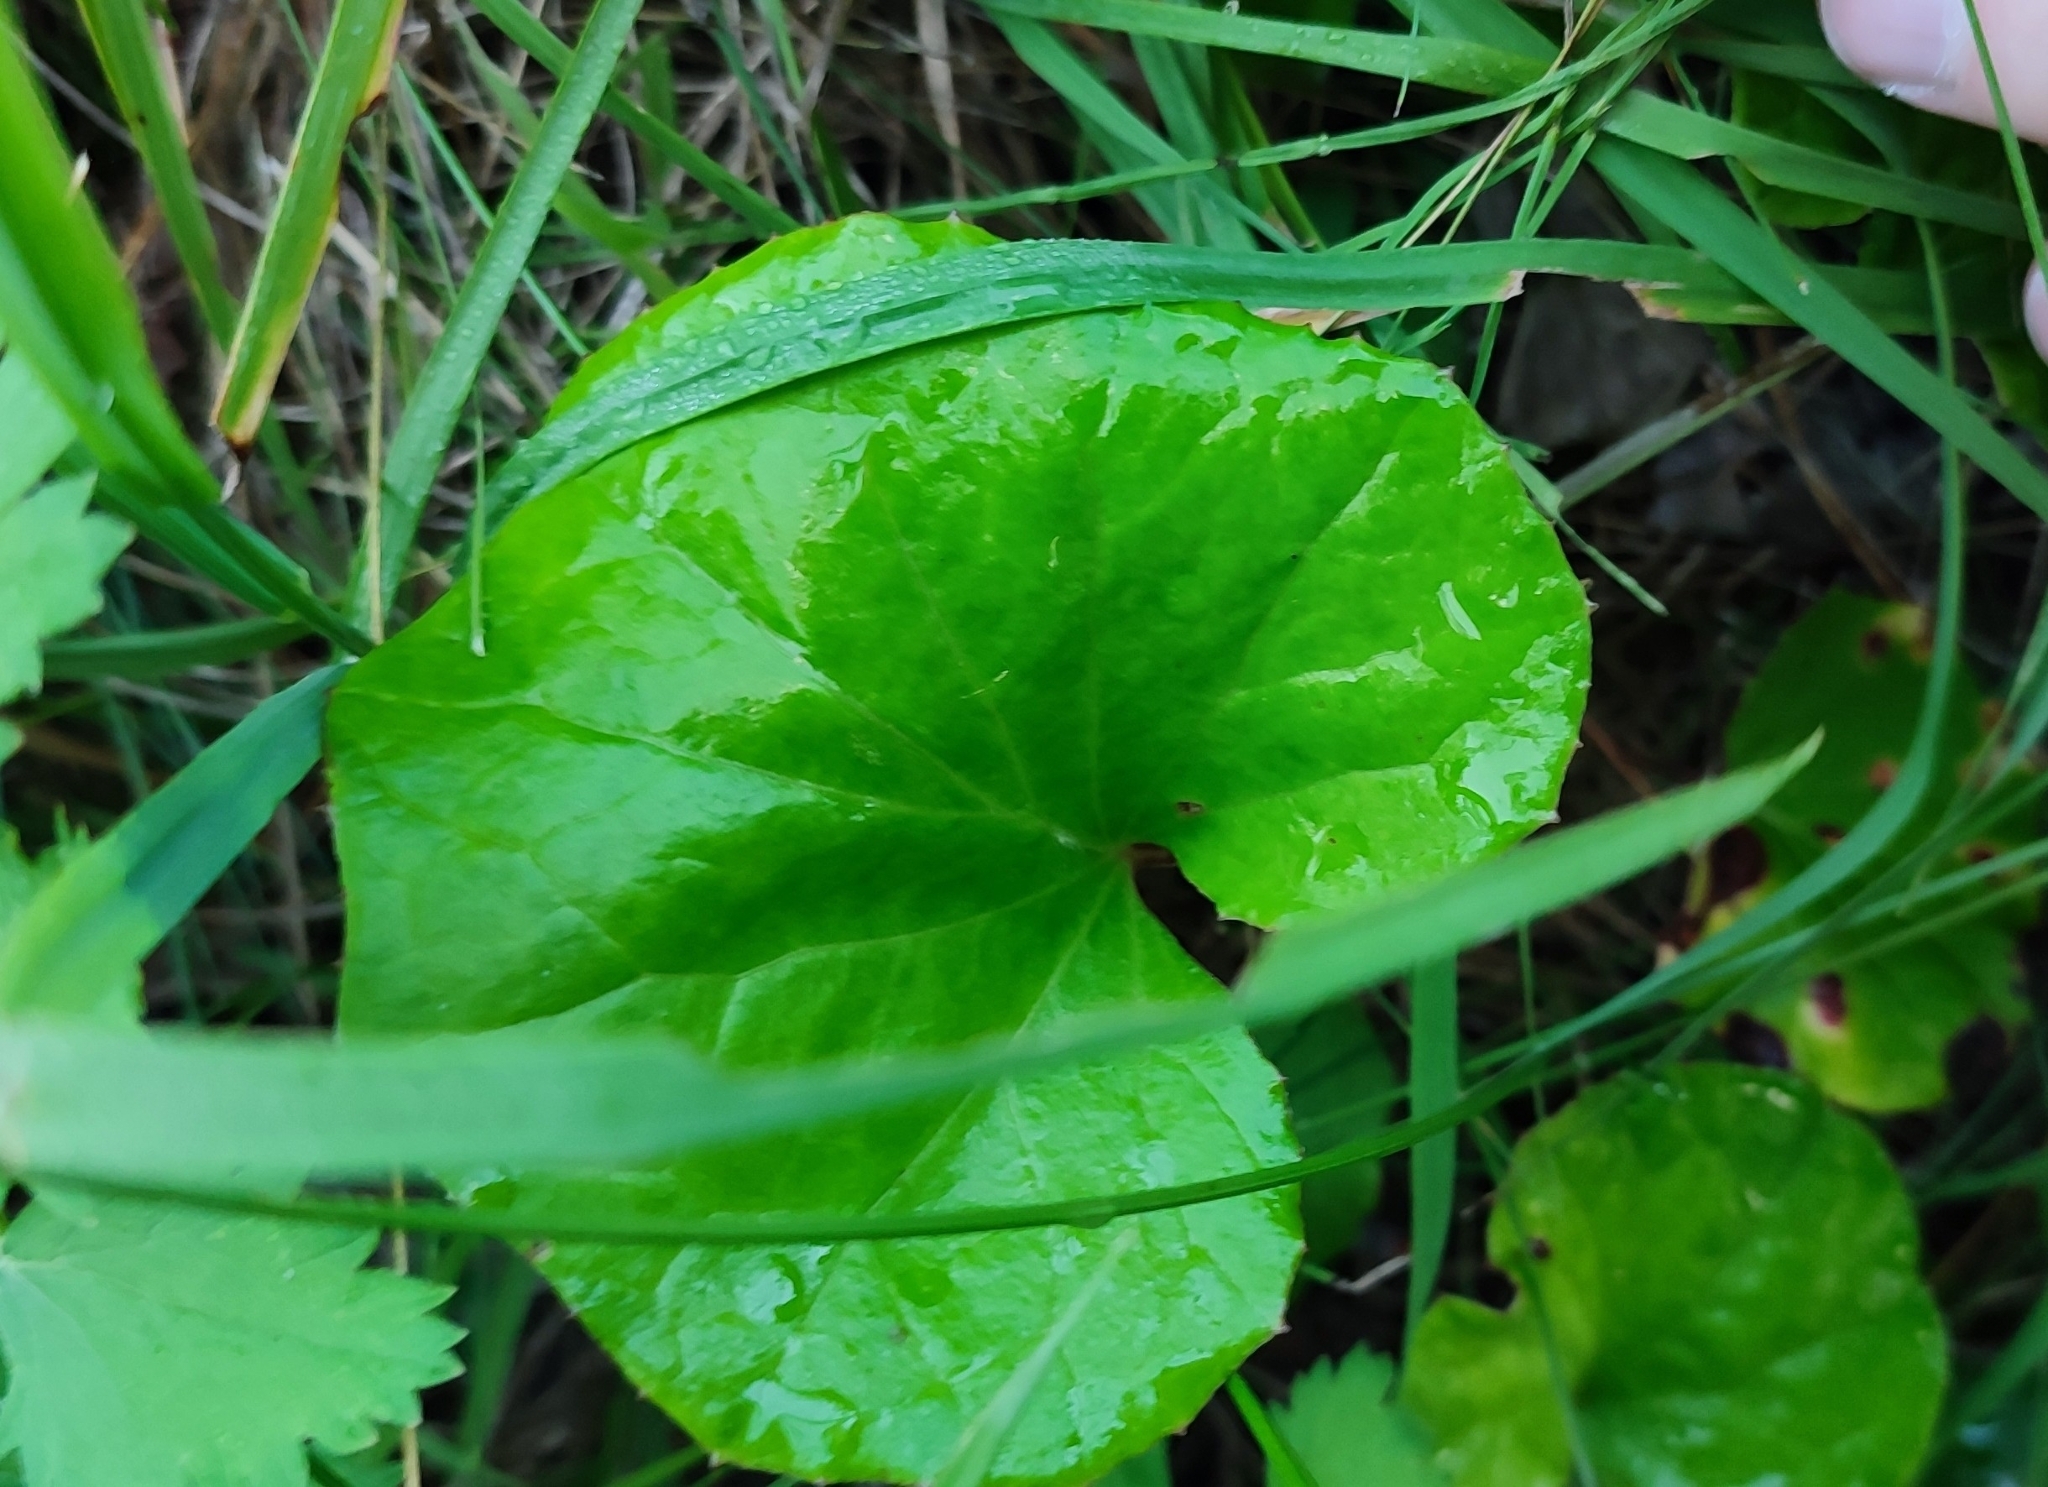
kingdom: Plantae
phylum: Tracheophyta
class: Magnoliopsida
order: Asterales
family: Asteraceae
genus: Tussilago
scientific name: Tussilago farfara
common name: Coltsfoot
